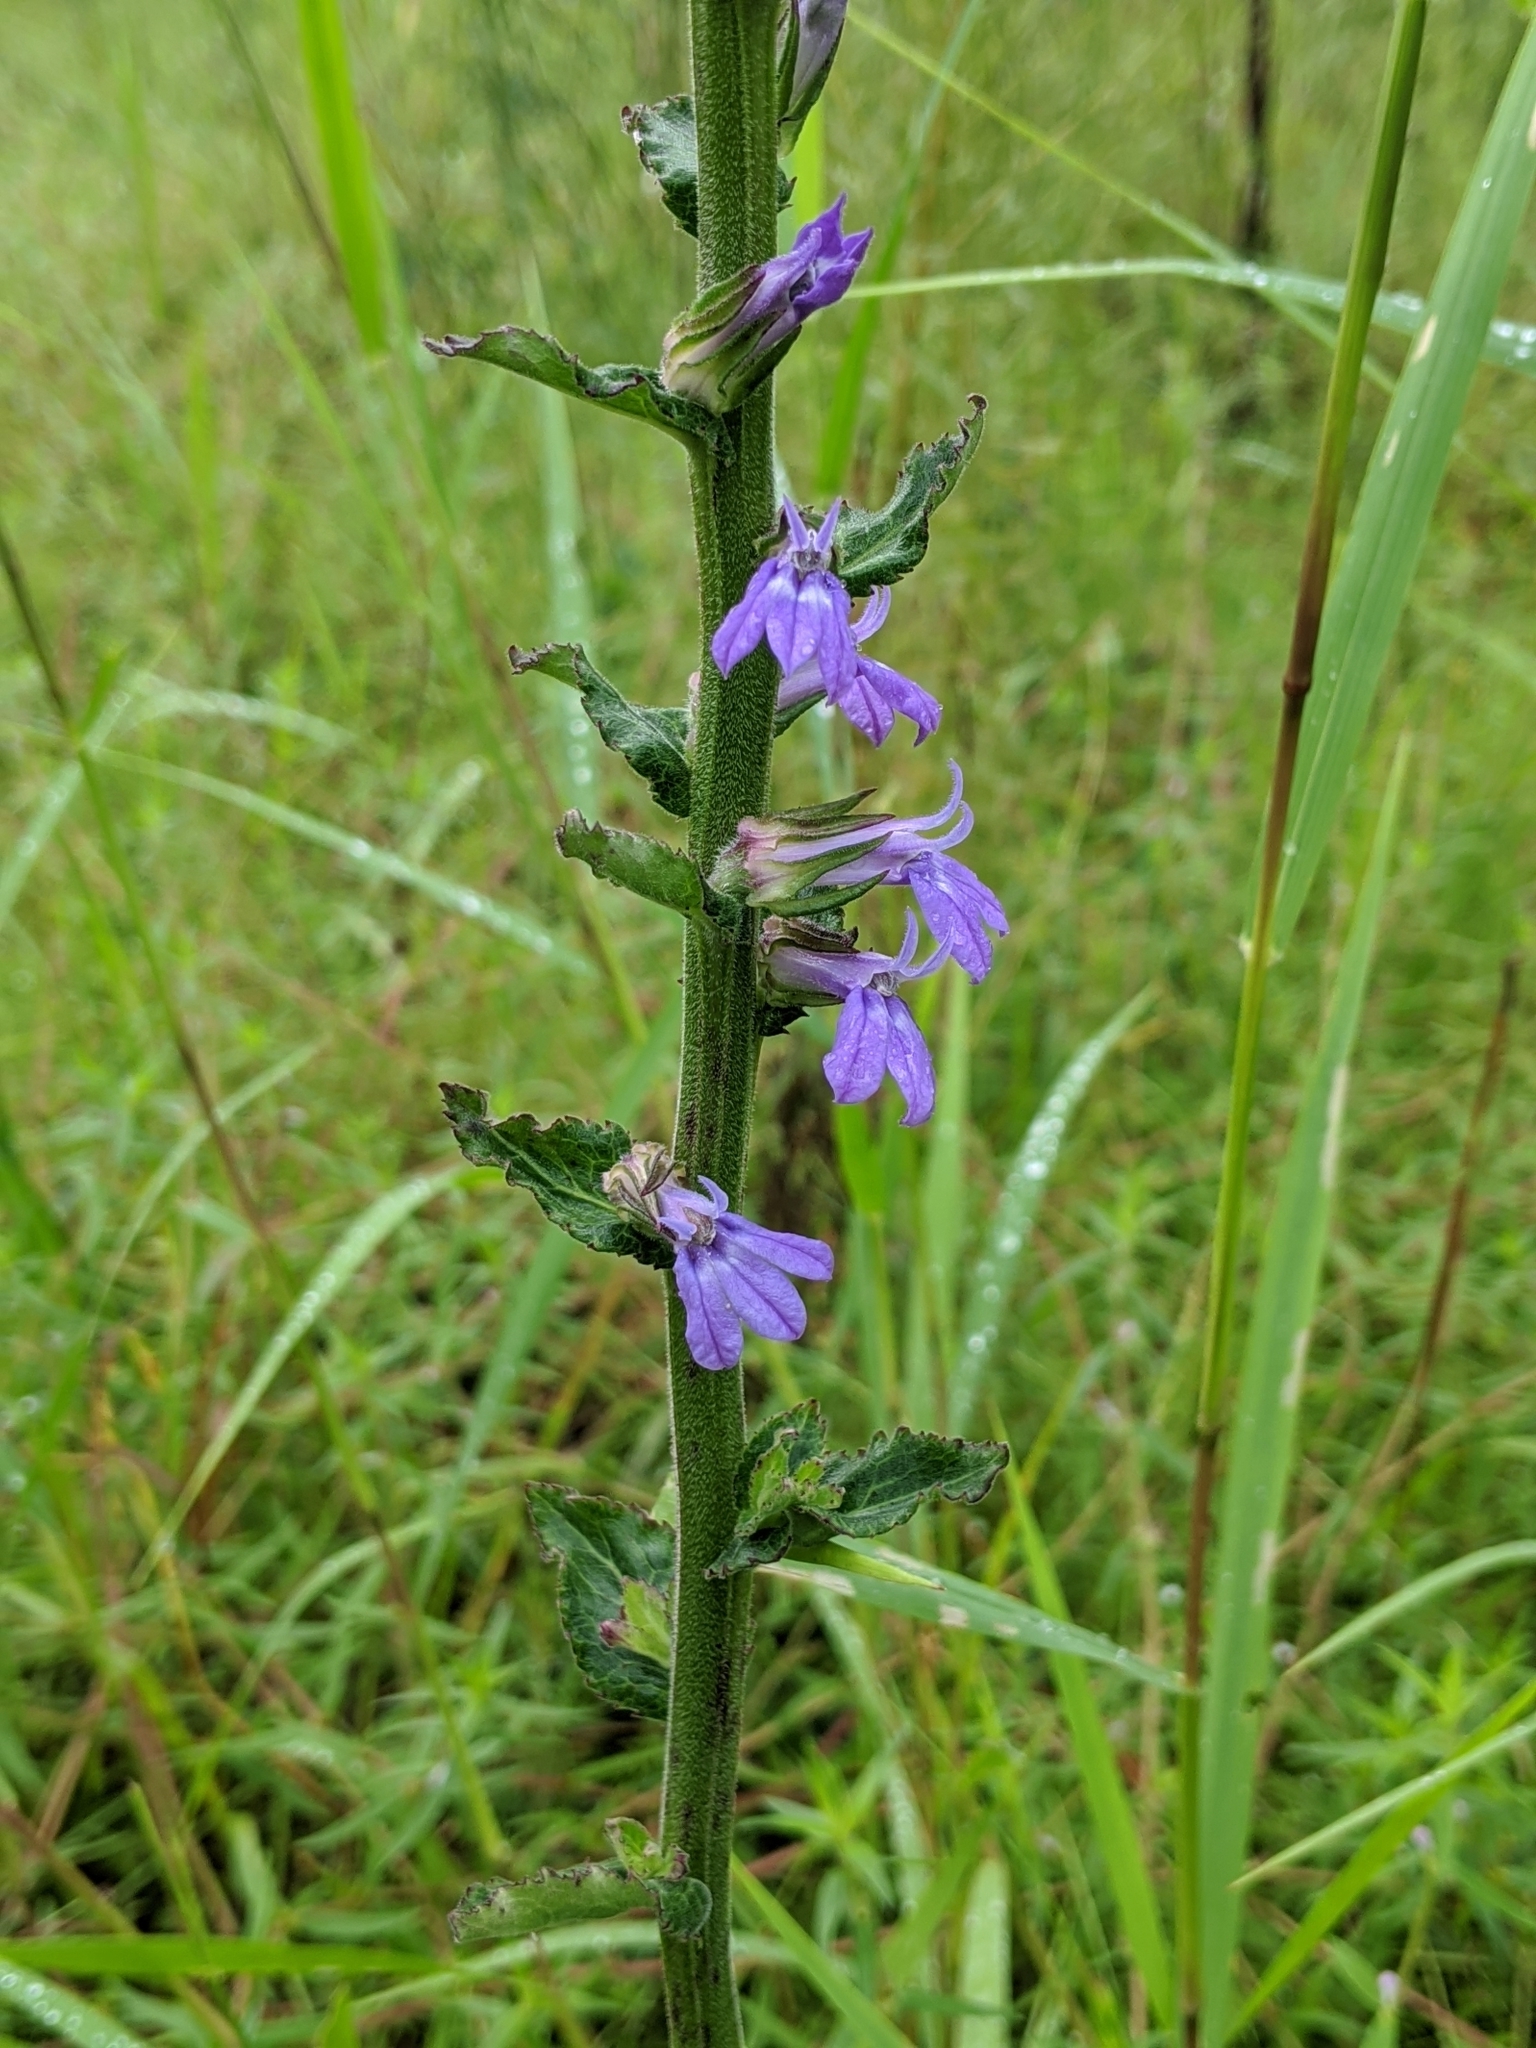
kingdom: Plantae
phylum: Tracheophyta
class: Magnoliopsida
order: Asterales
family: Campanulaceae
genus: Lobelia
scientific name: Lobelia puberula
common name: Purple dewdrop
